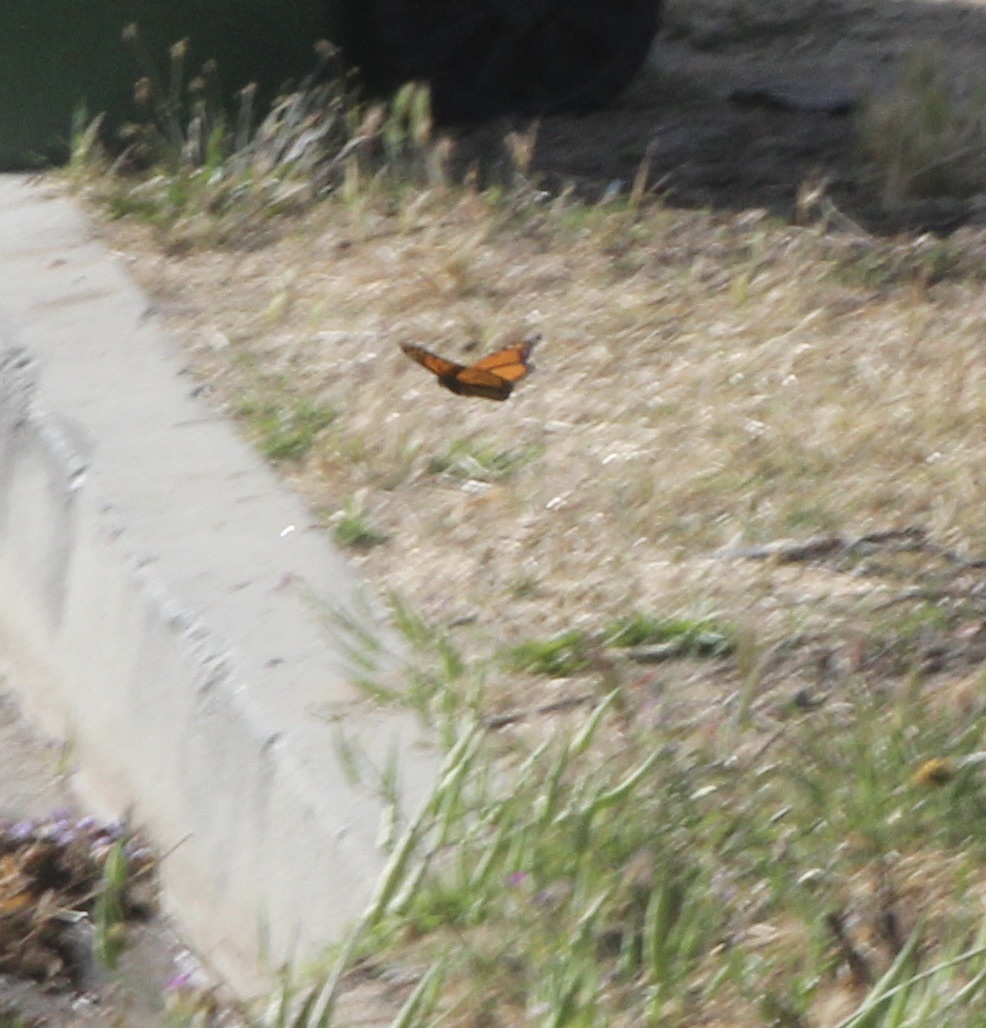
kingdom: Animalia
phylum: Arthropoda
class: Insecta
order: Lepidoptera
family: Nymphalidae
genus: Danaus
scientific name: Danaus plexippus
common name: Monarch
